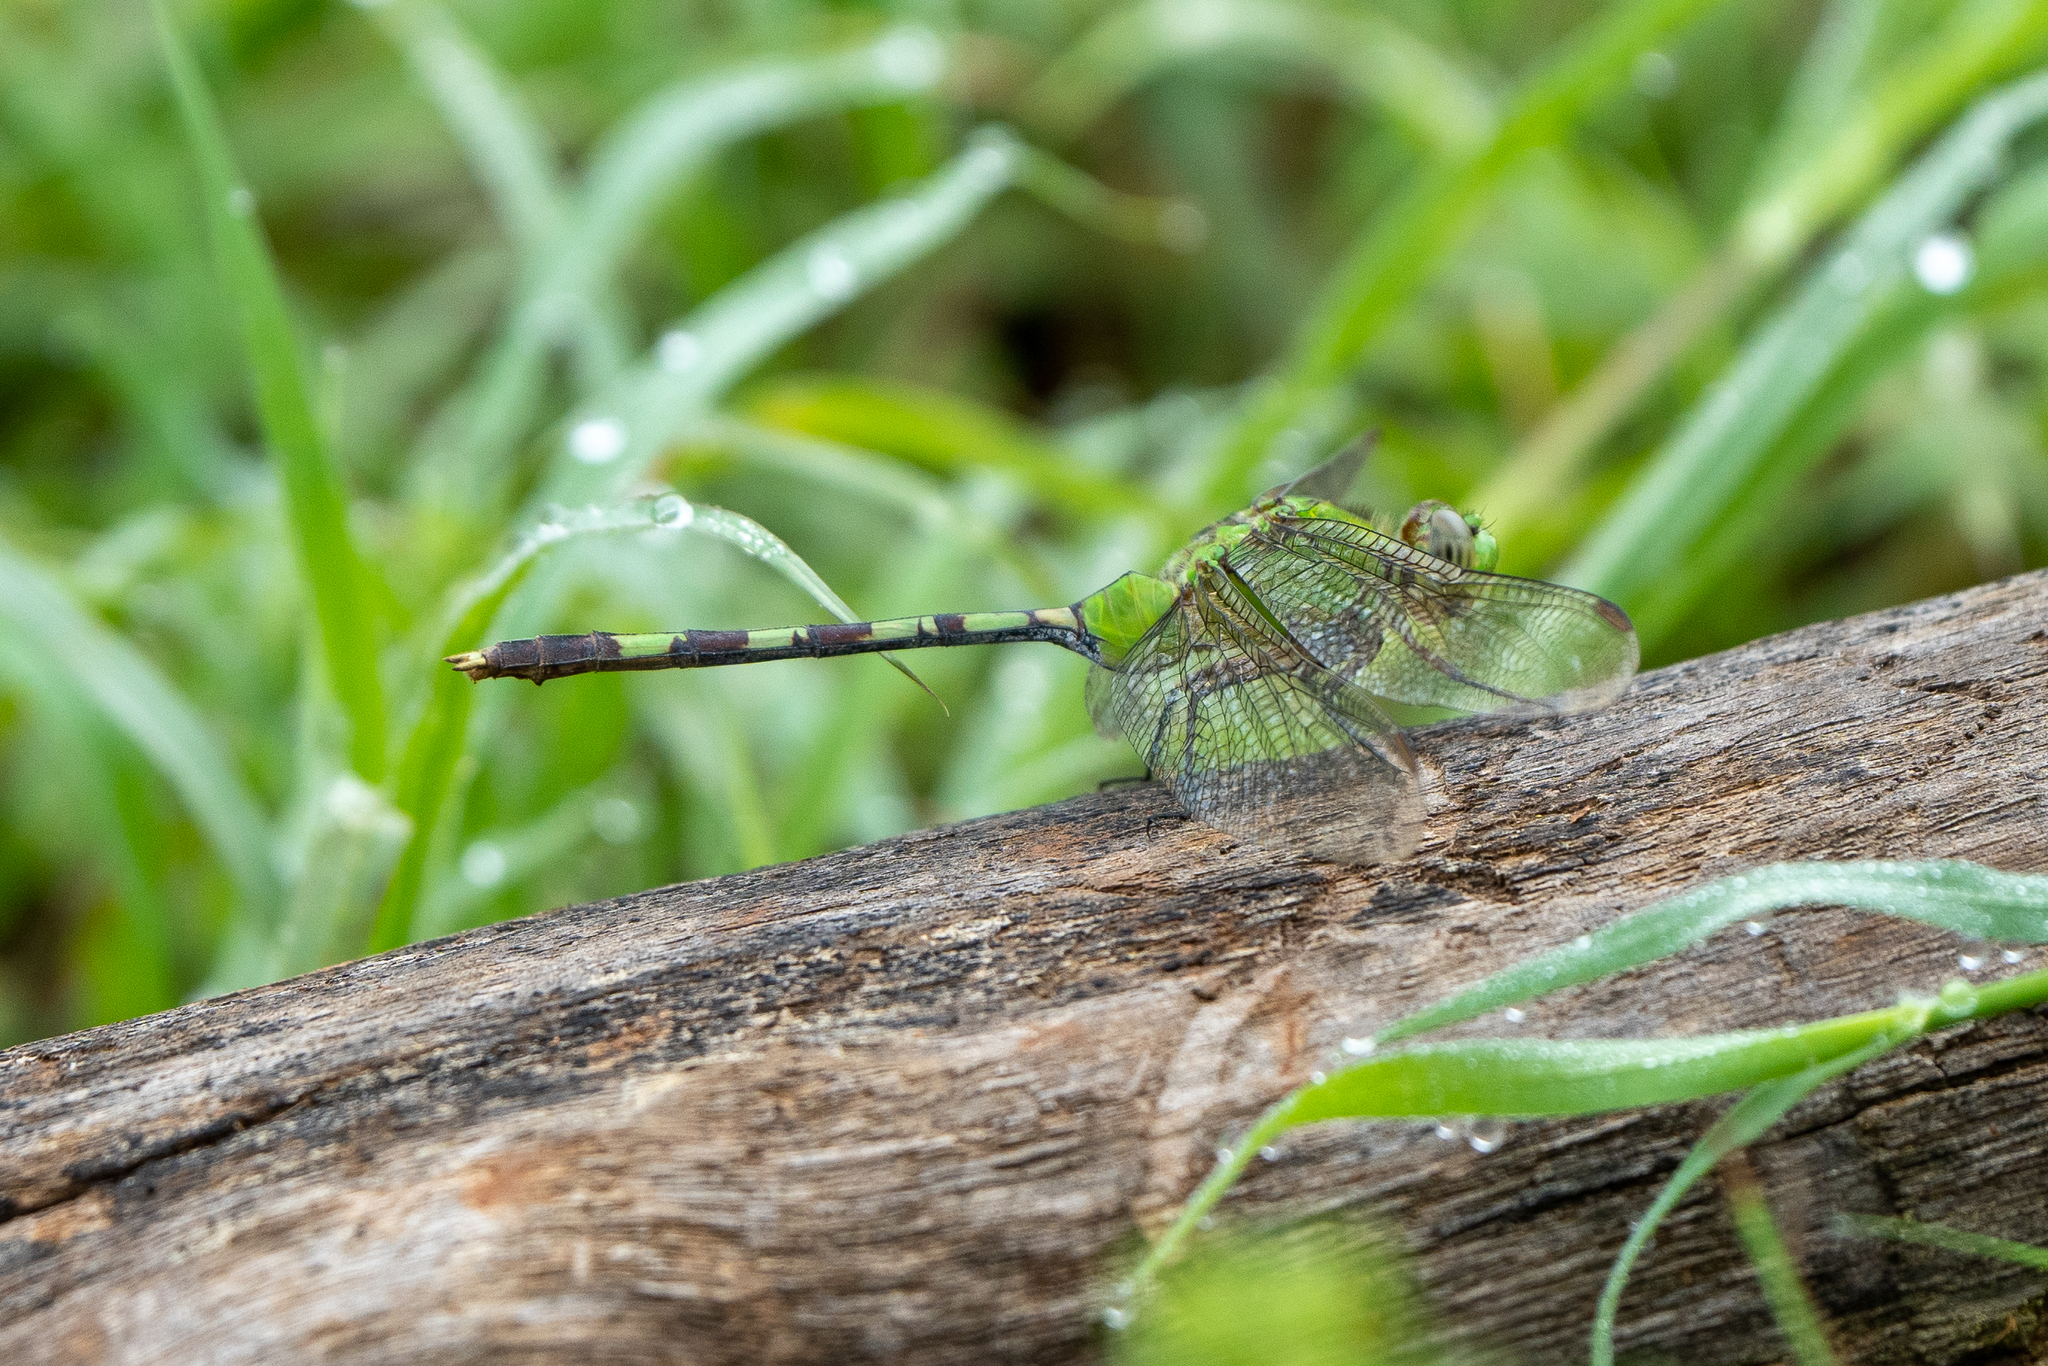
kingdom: Animalia
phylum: Arthropoda
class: Insecta
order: Odonata
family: Libellulidae
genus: Erythemis
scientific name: Erythemis vesiculosa
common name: Great pondhawk
